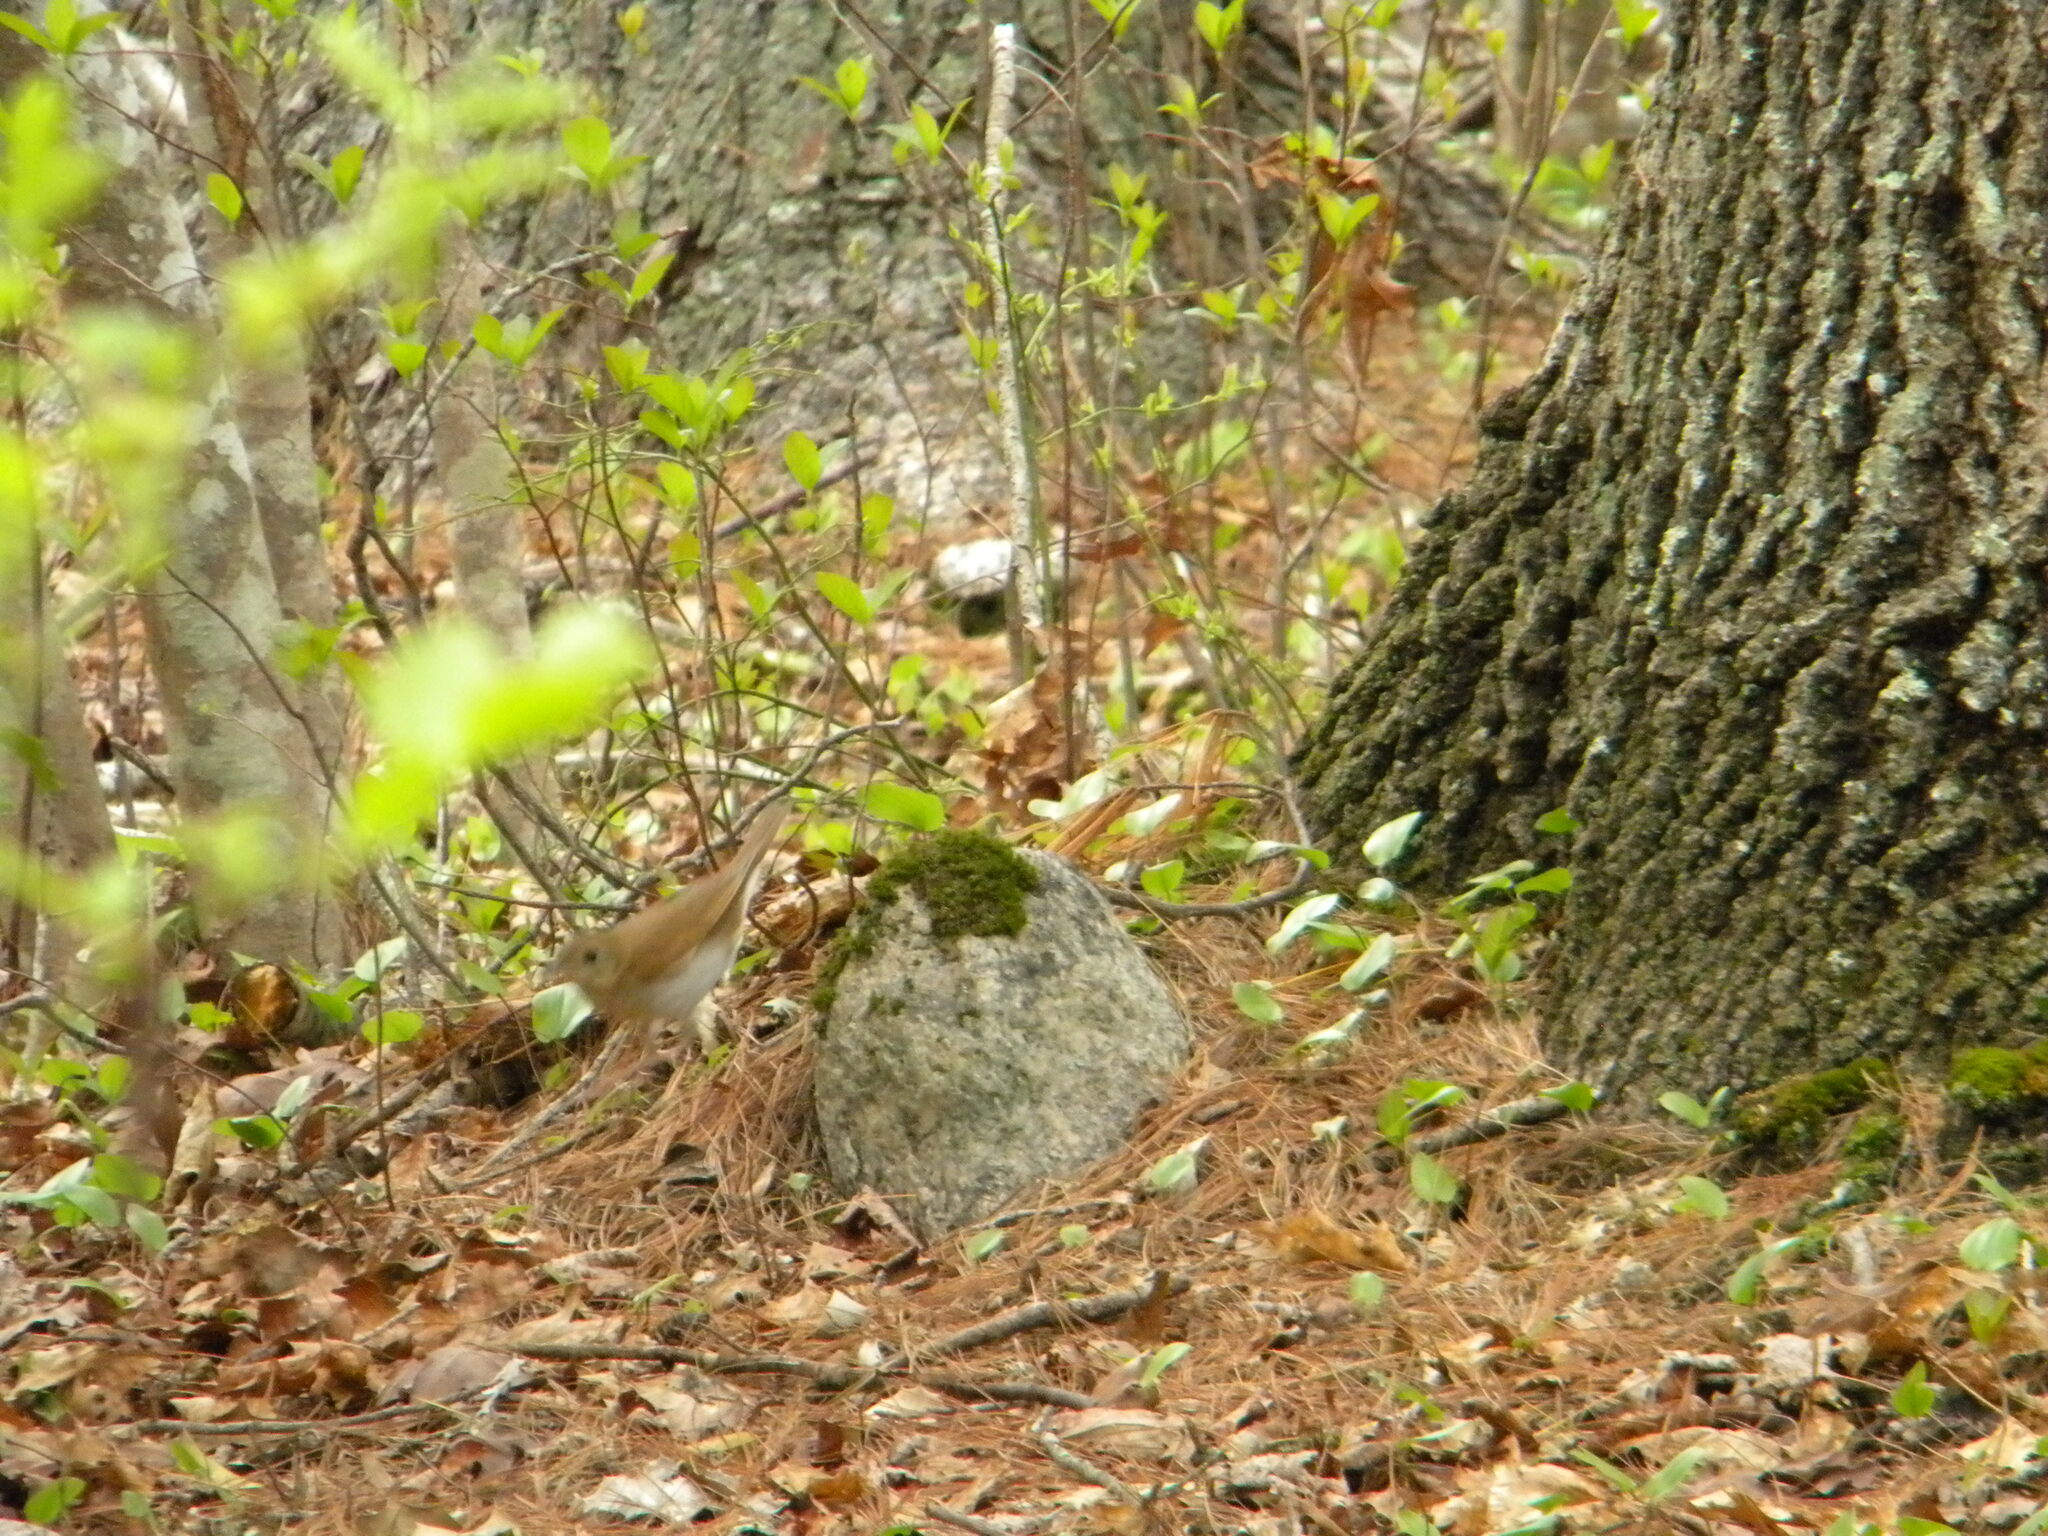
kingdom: Animalia
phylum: Chordata
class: Aves
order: Passeriformes
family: Turdidae
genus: Catharus
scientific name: Catharus fuscescens
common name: Veery
